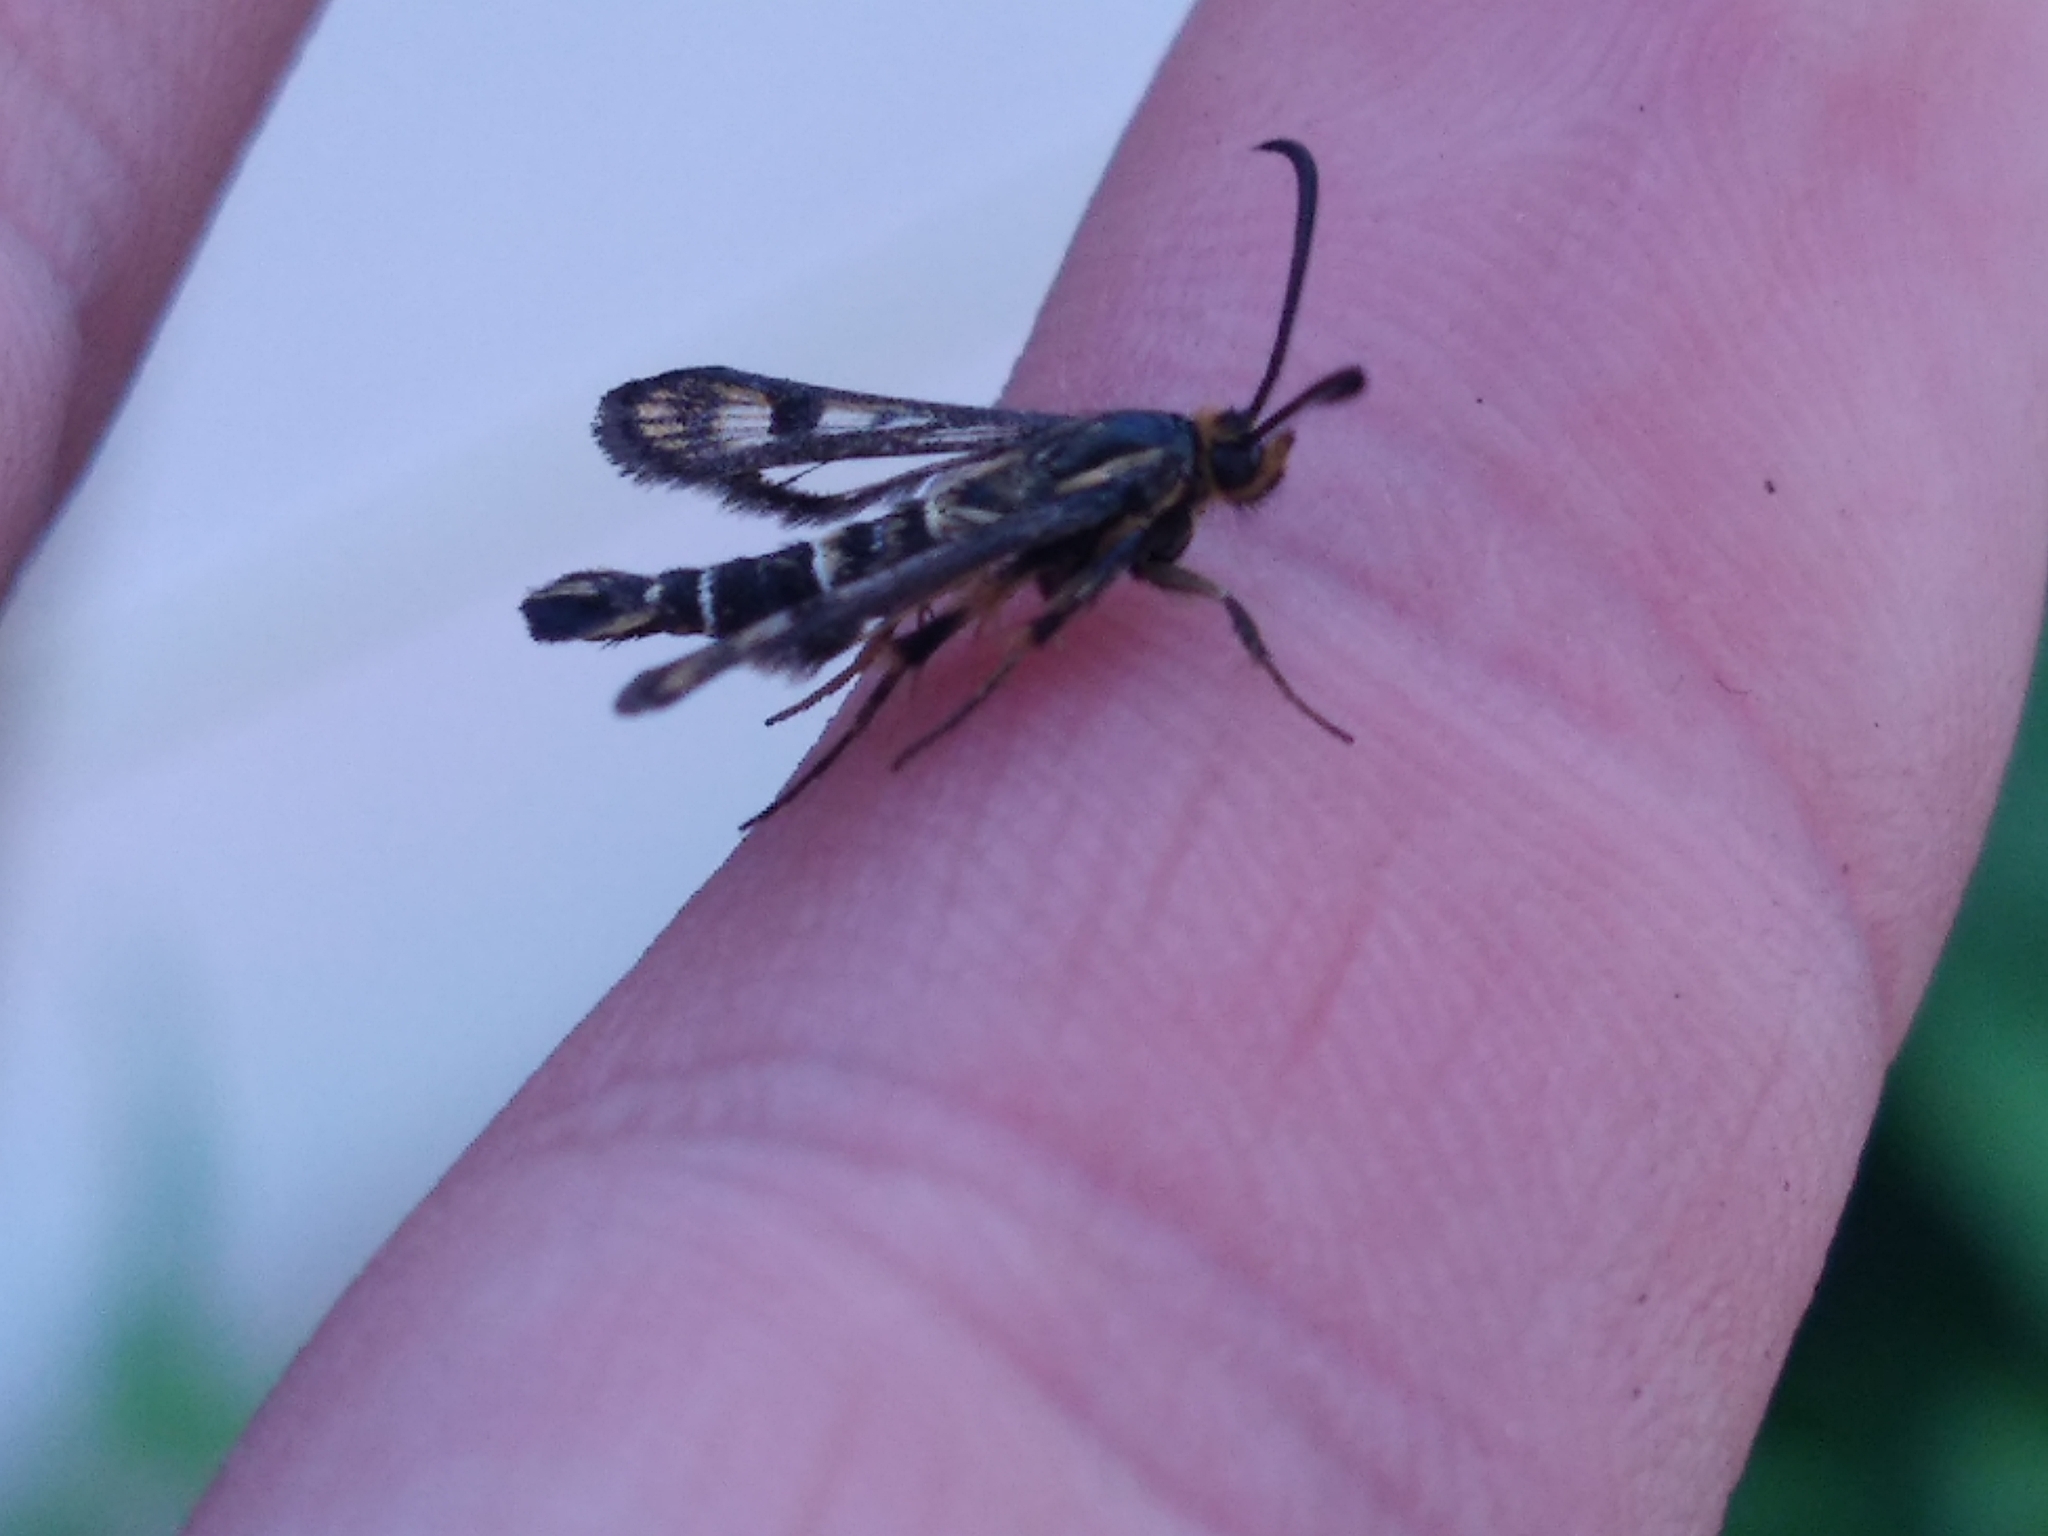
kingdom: Animalia
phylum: Arthropoda
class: Insecta
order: Lepidoptera
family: Sesiidae
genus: Chamaesphecia
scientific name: Chamaesphecia empiformis
